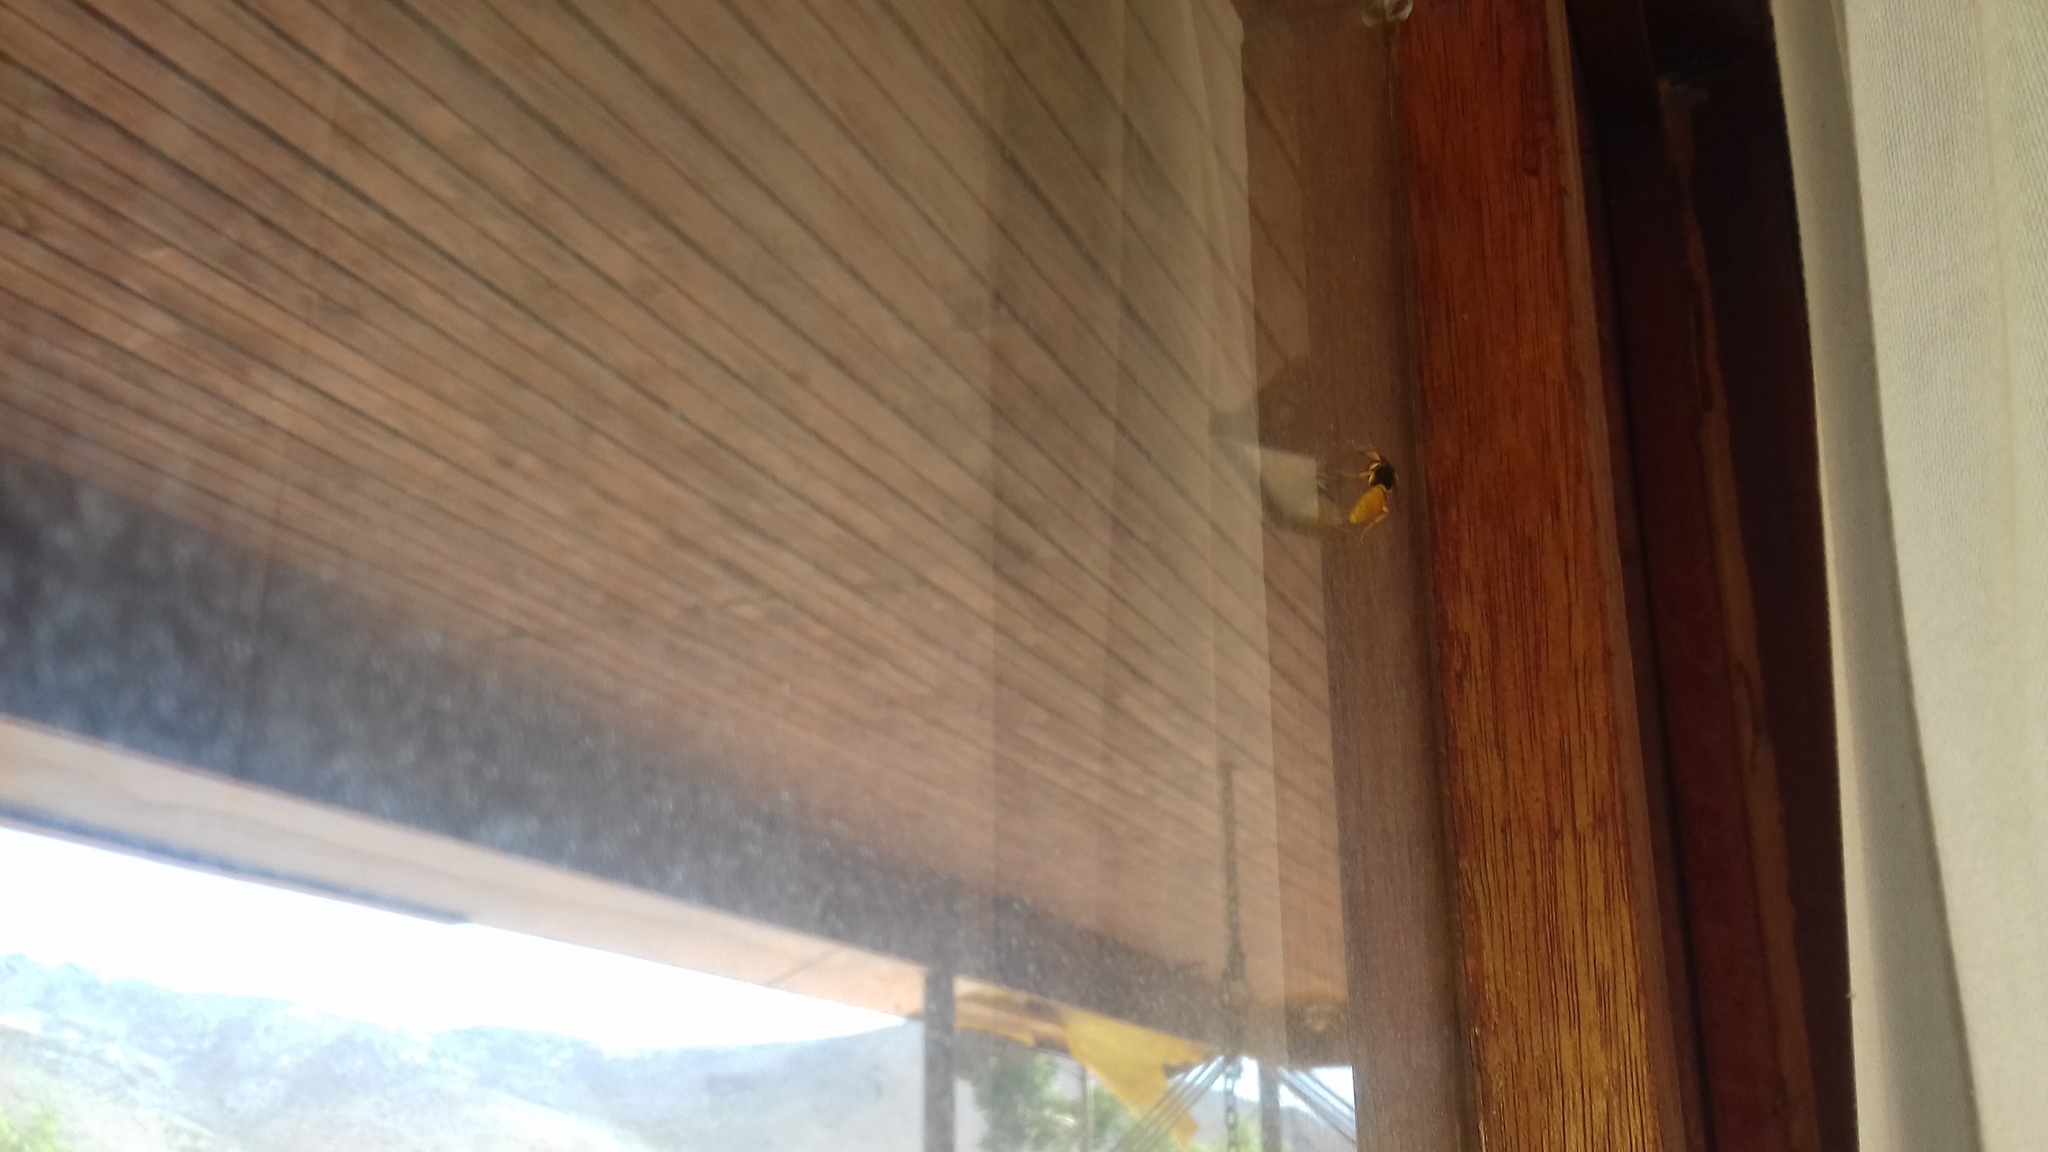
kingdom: Animalia
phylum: Arthropoda
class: Insecta
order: Hymenoptera
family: Crabronidae
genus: Philanthus
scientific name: Philanthus triangulum
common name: Bee wolf
